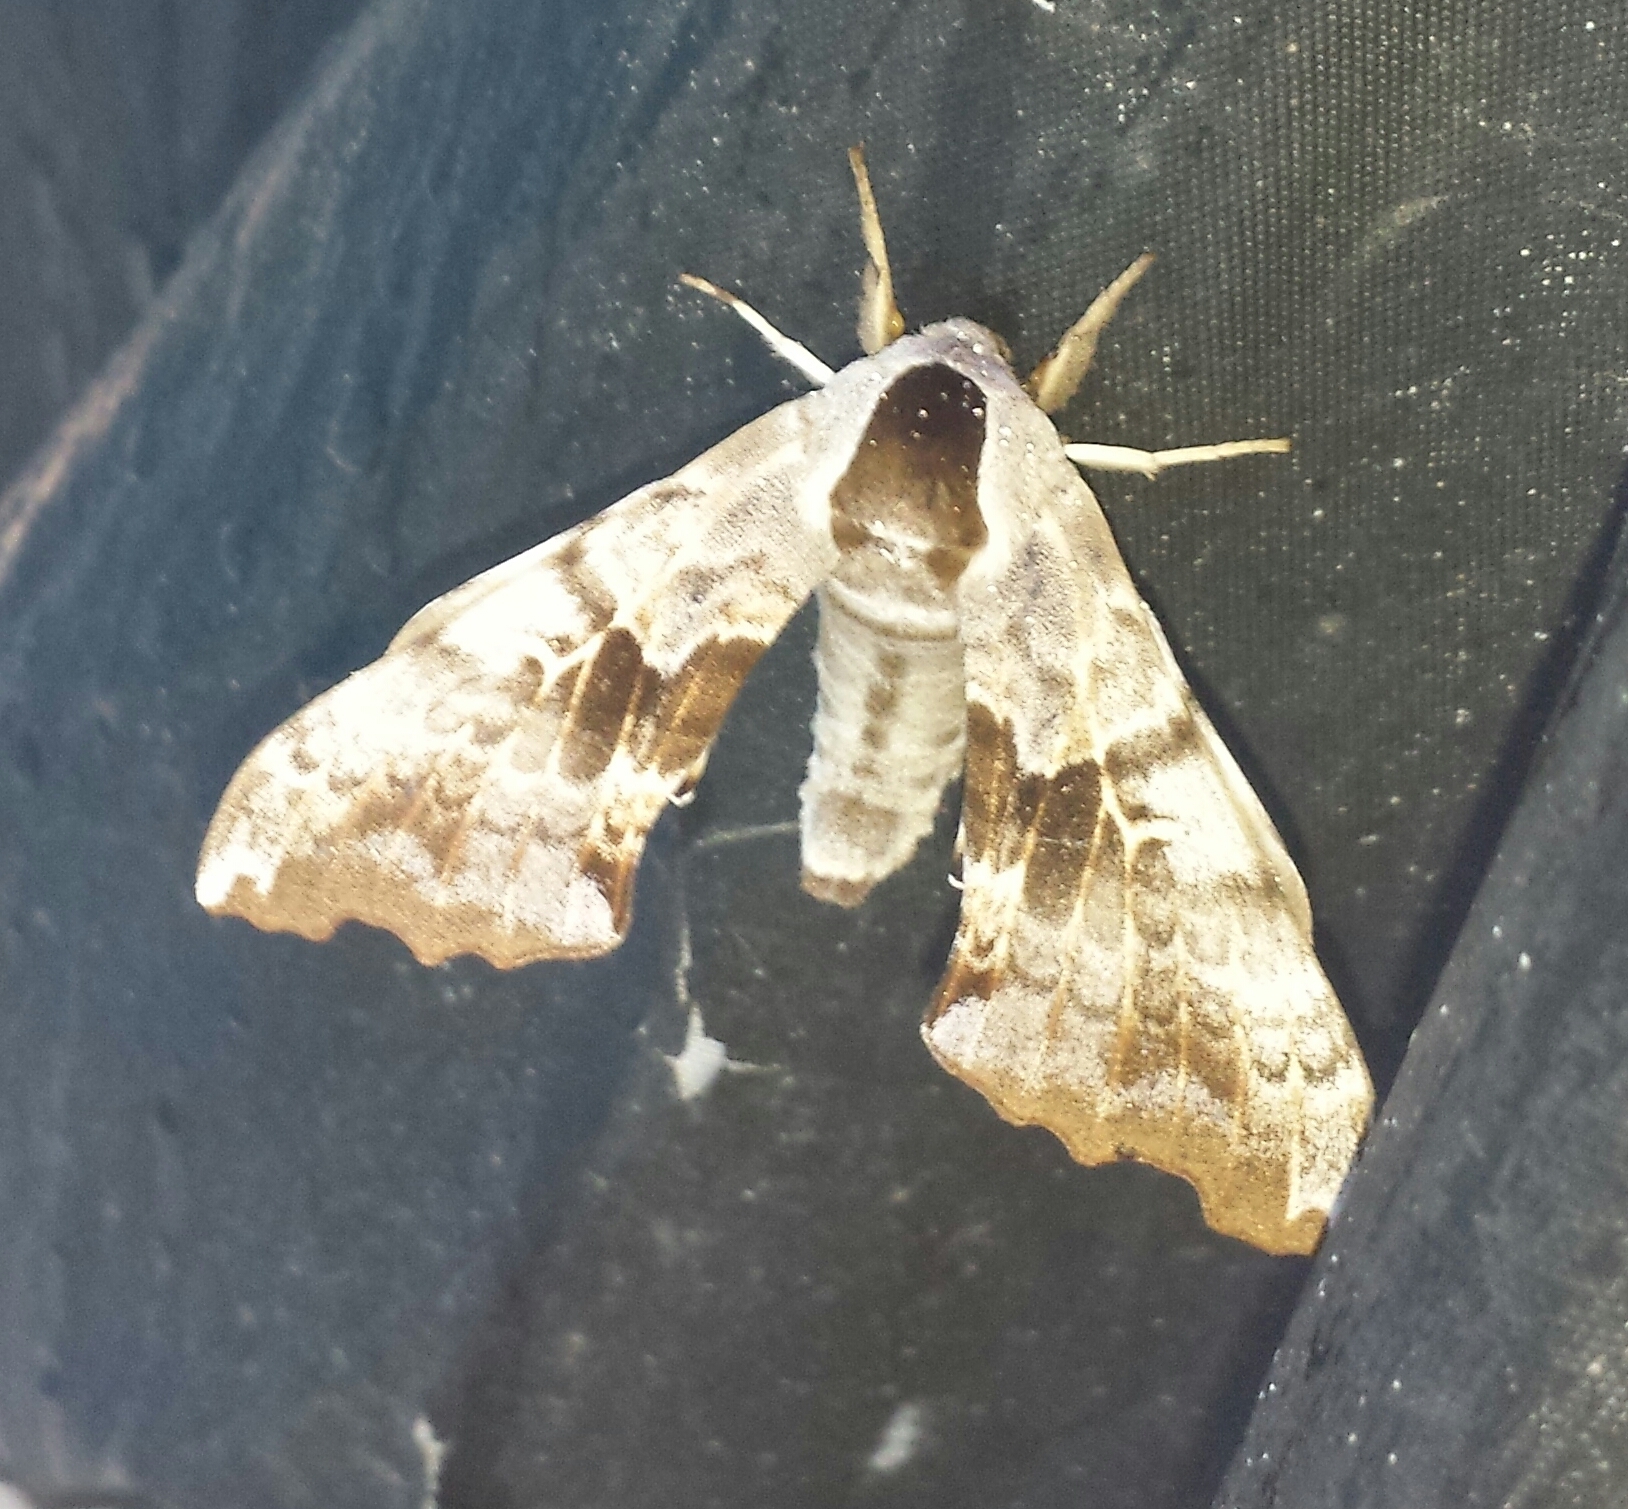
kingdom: Animalia
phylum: Arthropoda
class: Insecta
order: Lepidoptera
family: Sphingidae
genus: Smerinthus
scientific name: Smerinthus jamaicensis
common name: Twin spotted sphinx
